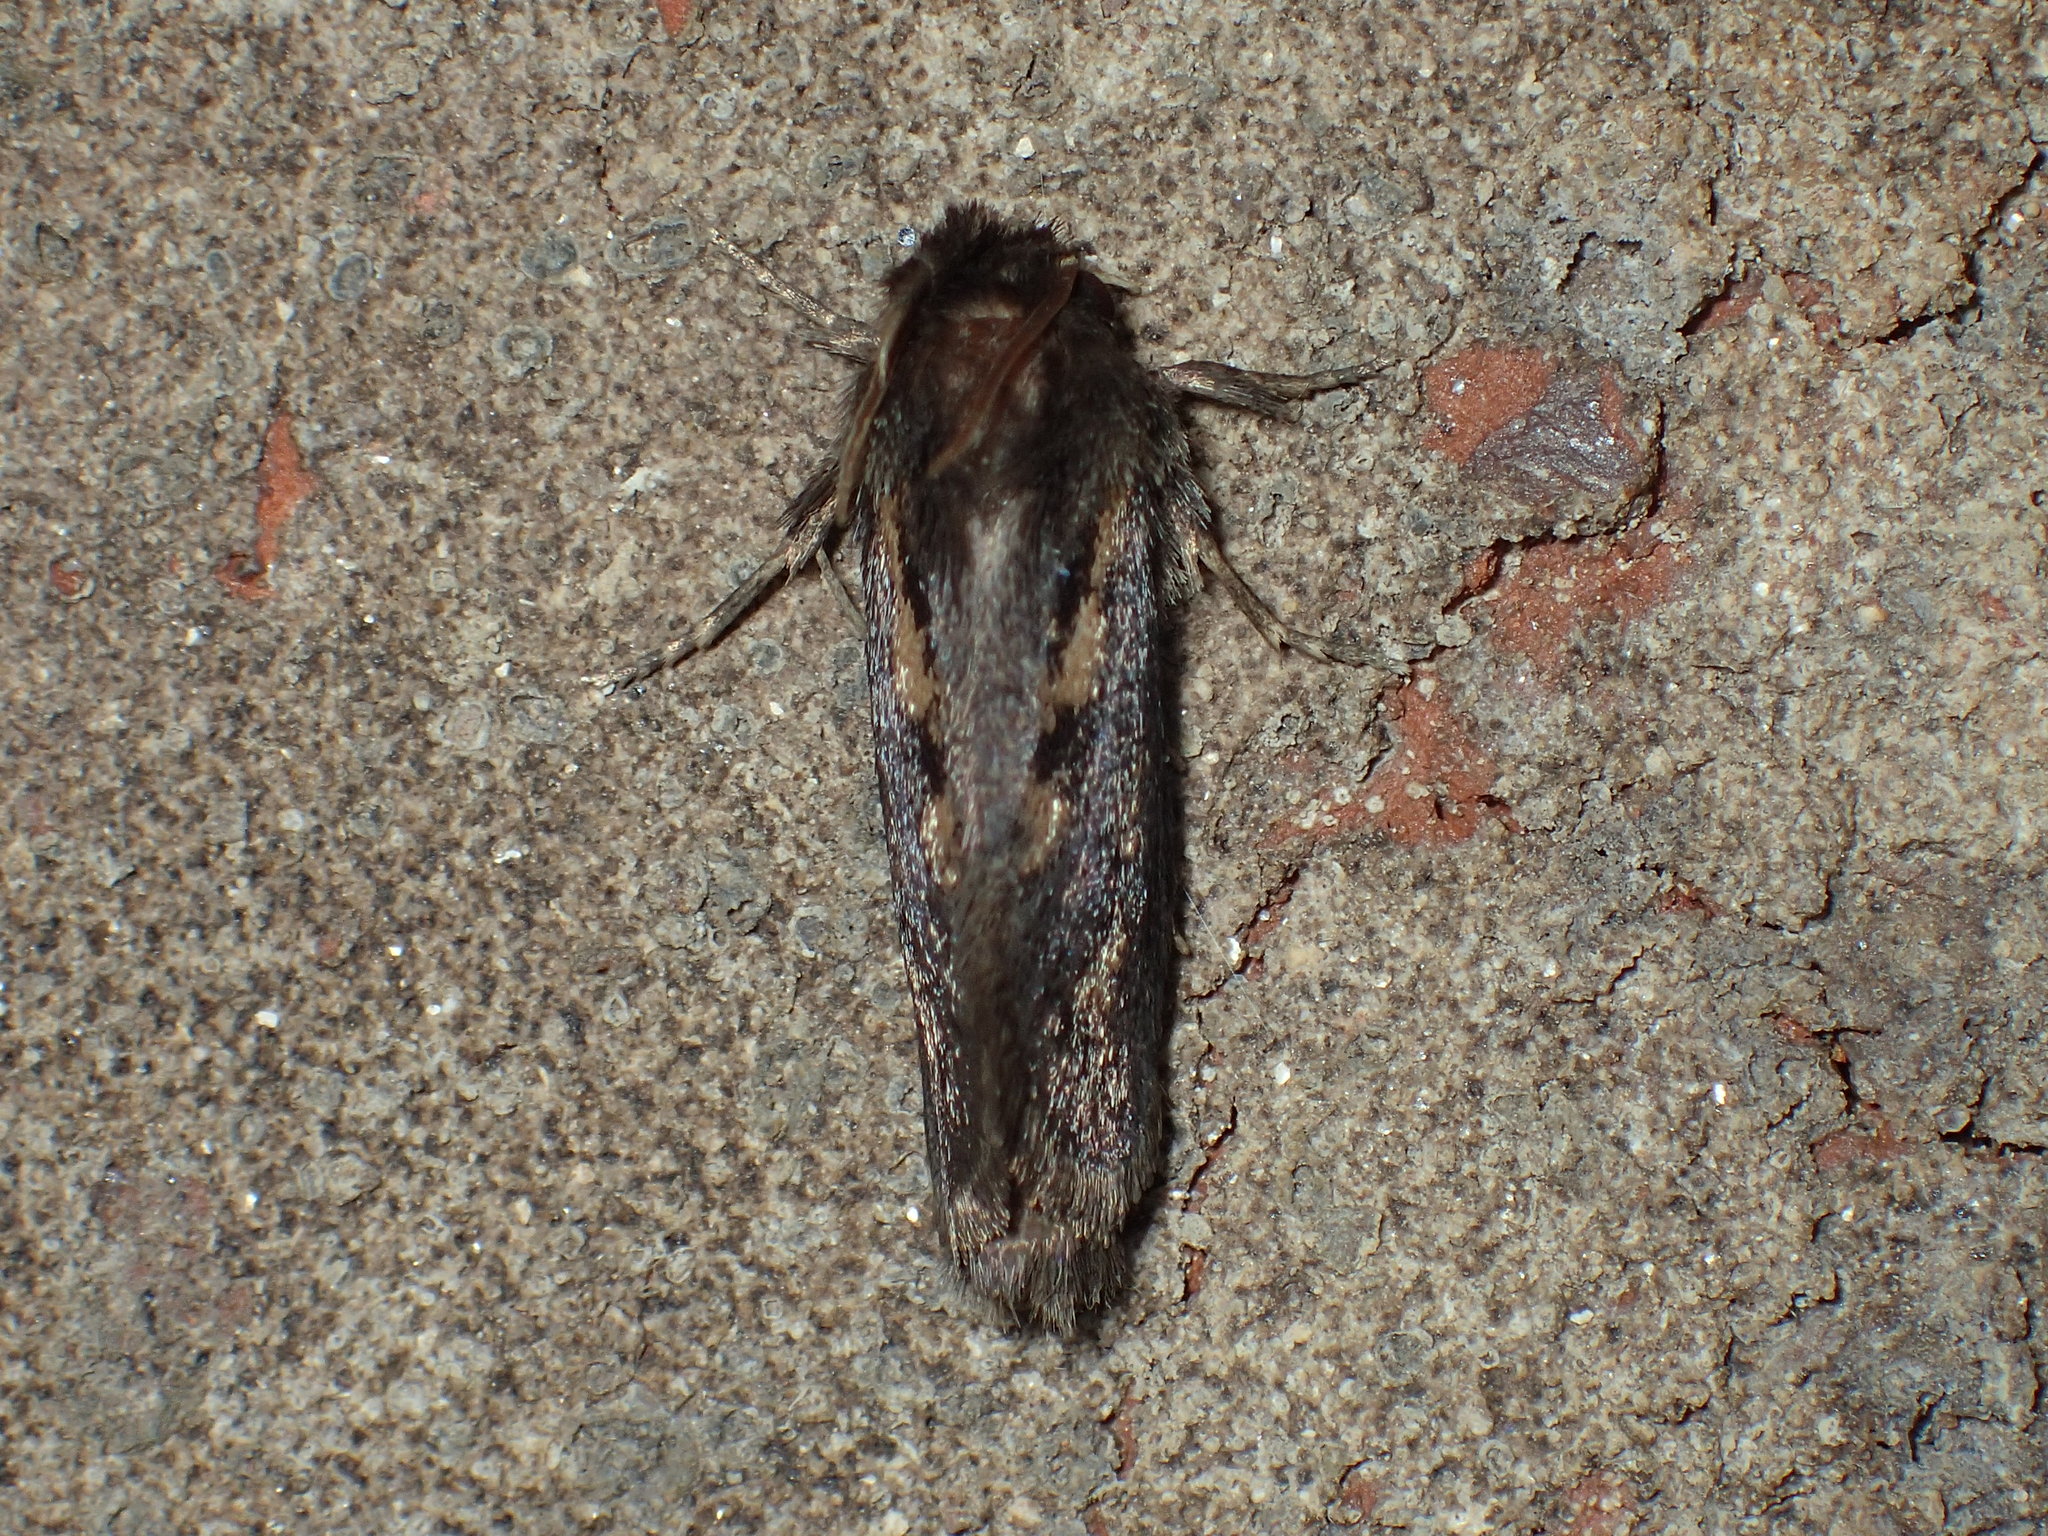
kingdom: Animalia
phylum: Arthropoda
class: Insecta
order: Lepidoptera
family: Tineidae
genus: Acrolophus
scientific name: Acrolophus popeanella
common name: Clemens' grass tubeworm moth
